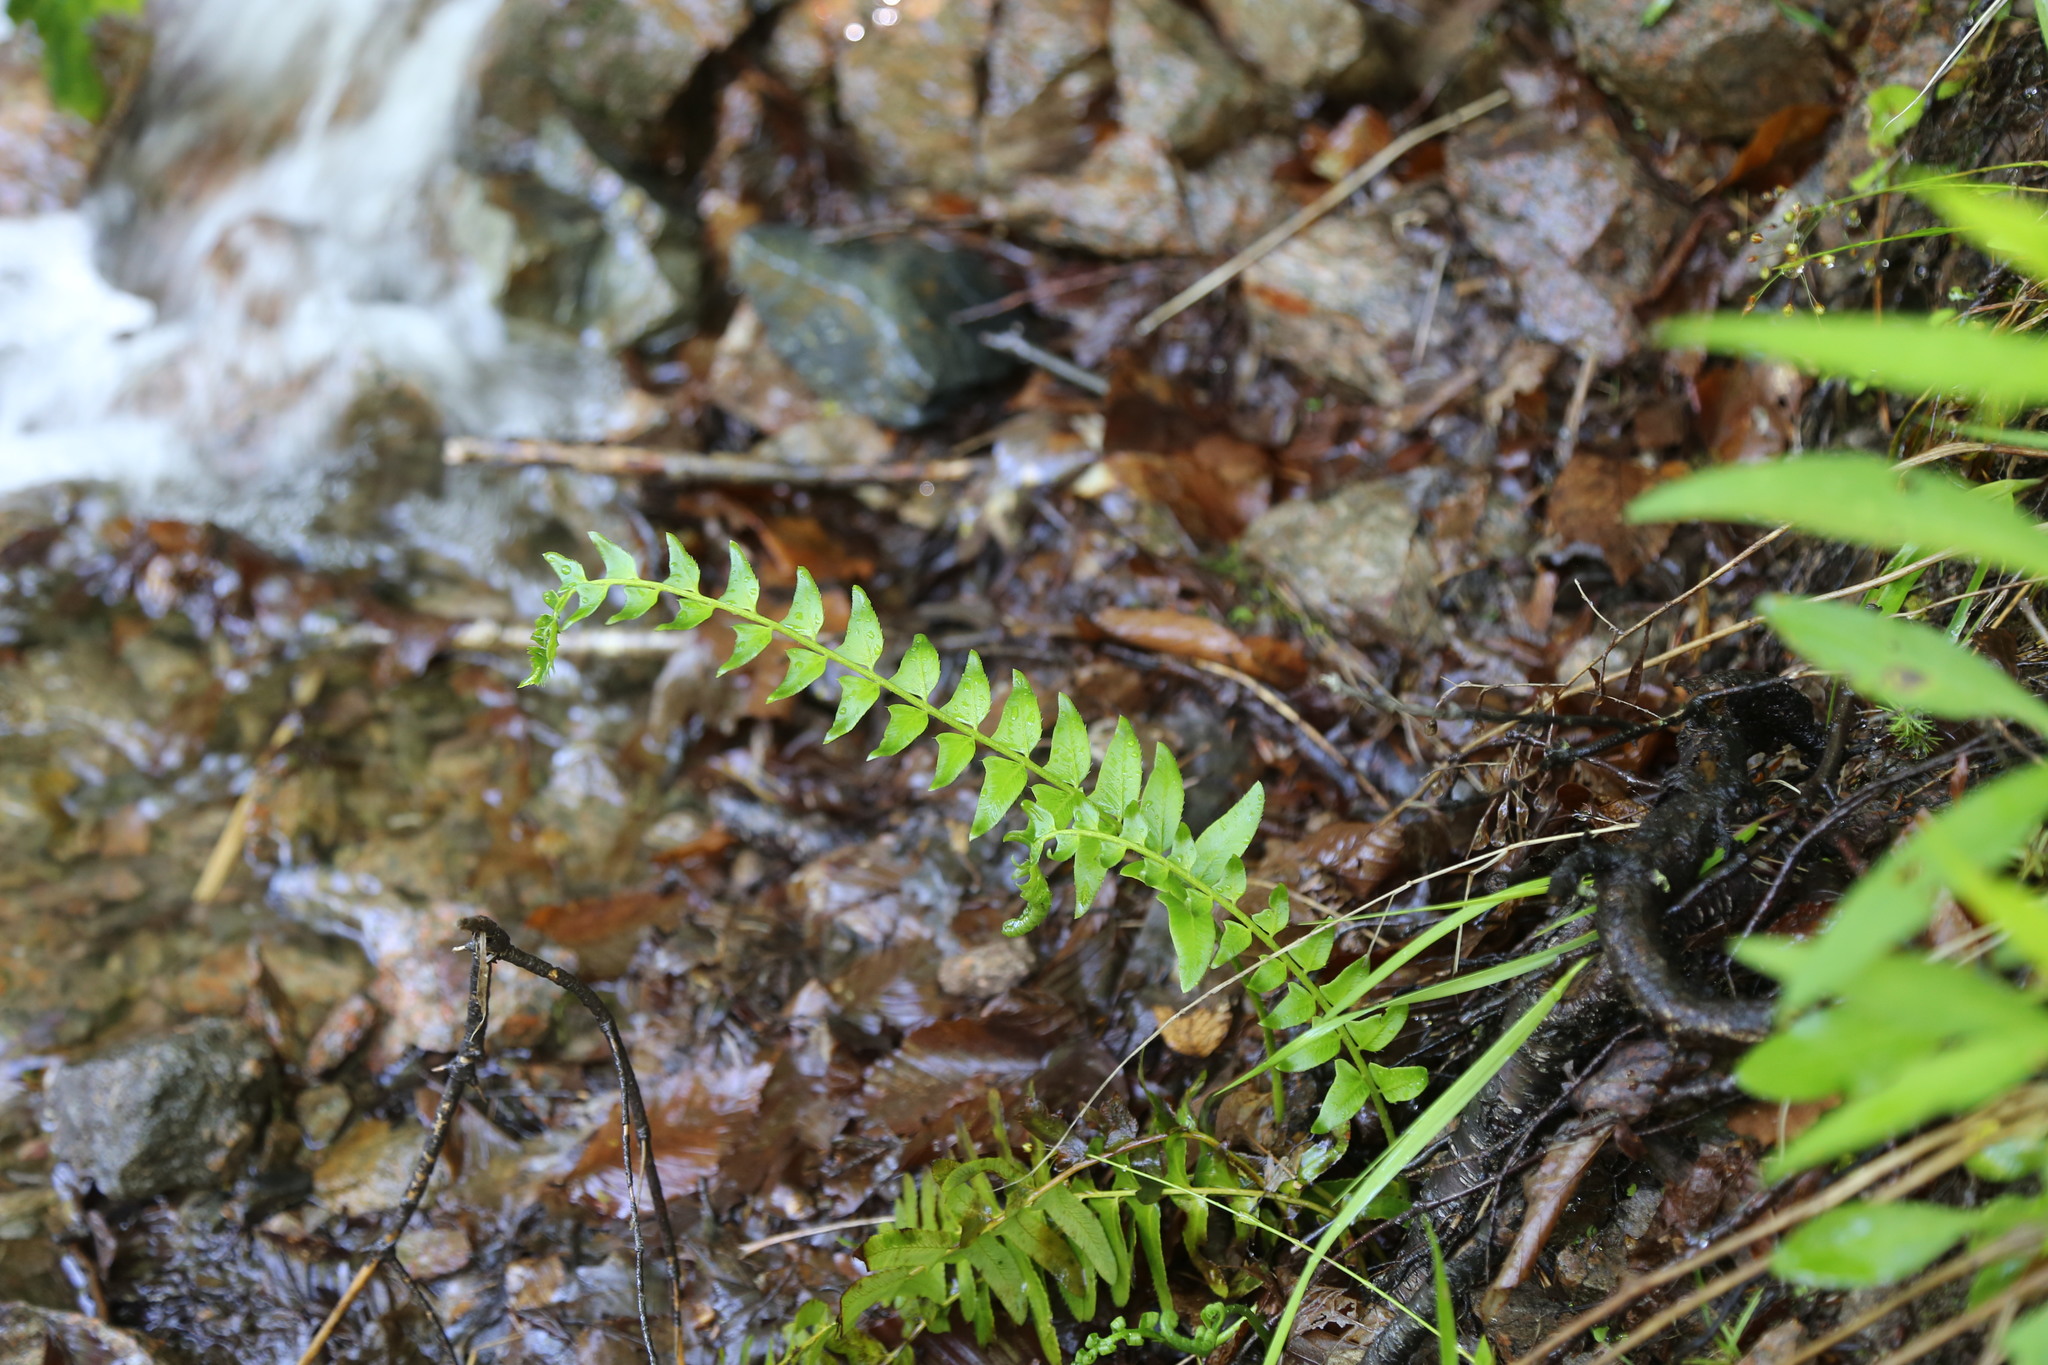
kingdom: Plantae
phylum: Tracheophyta
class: Polypodiopsida
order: Polypodiales
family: Dryopteridaceae
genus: Polystichum
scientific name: Polystichum acrostichoides
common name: Christmas fern
